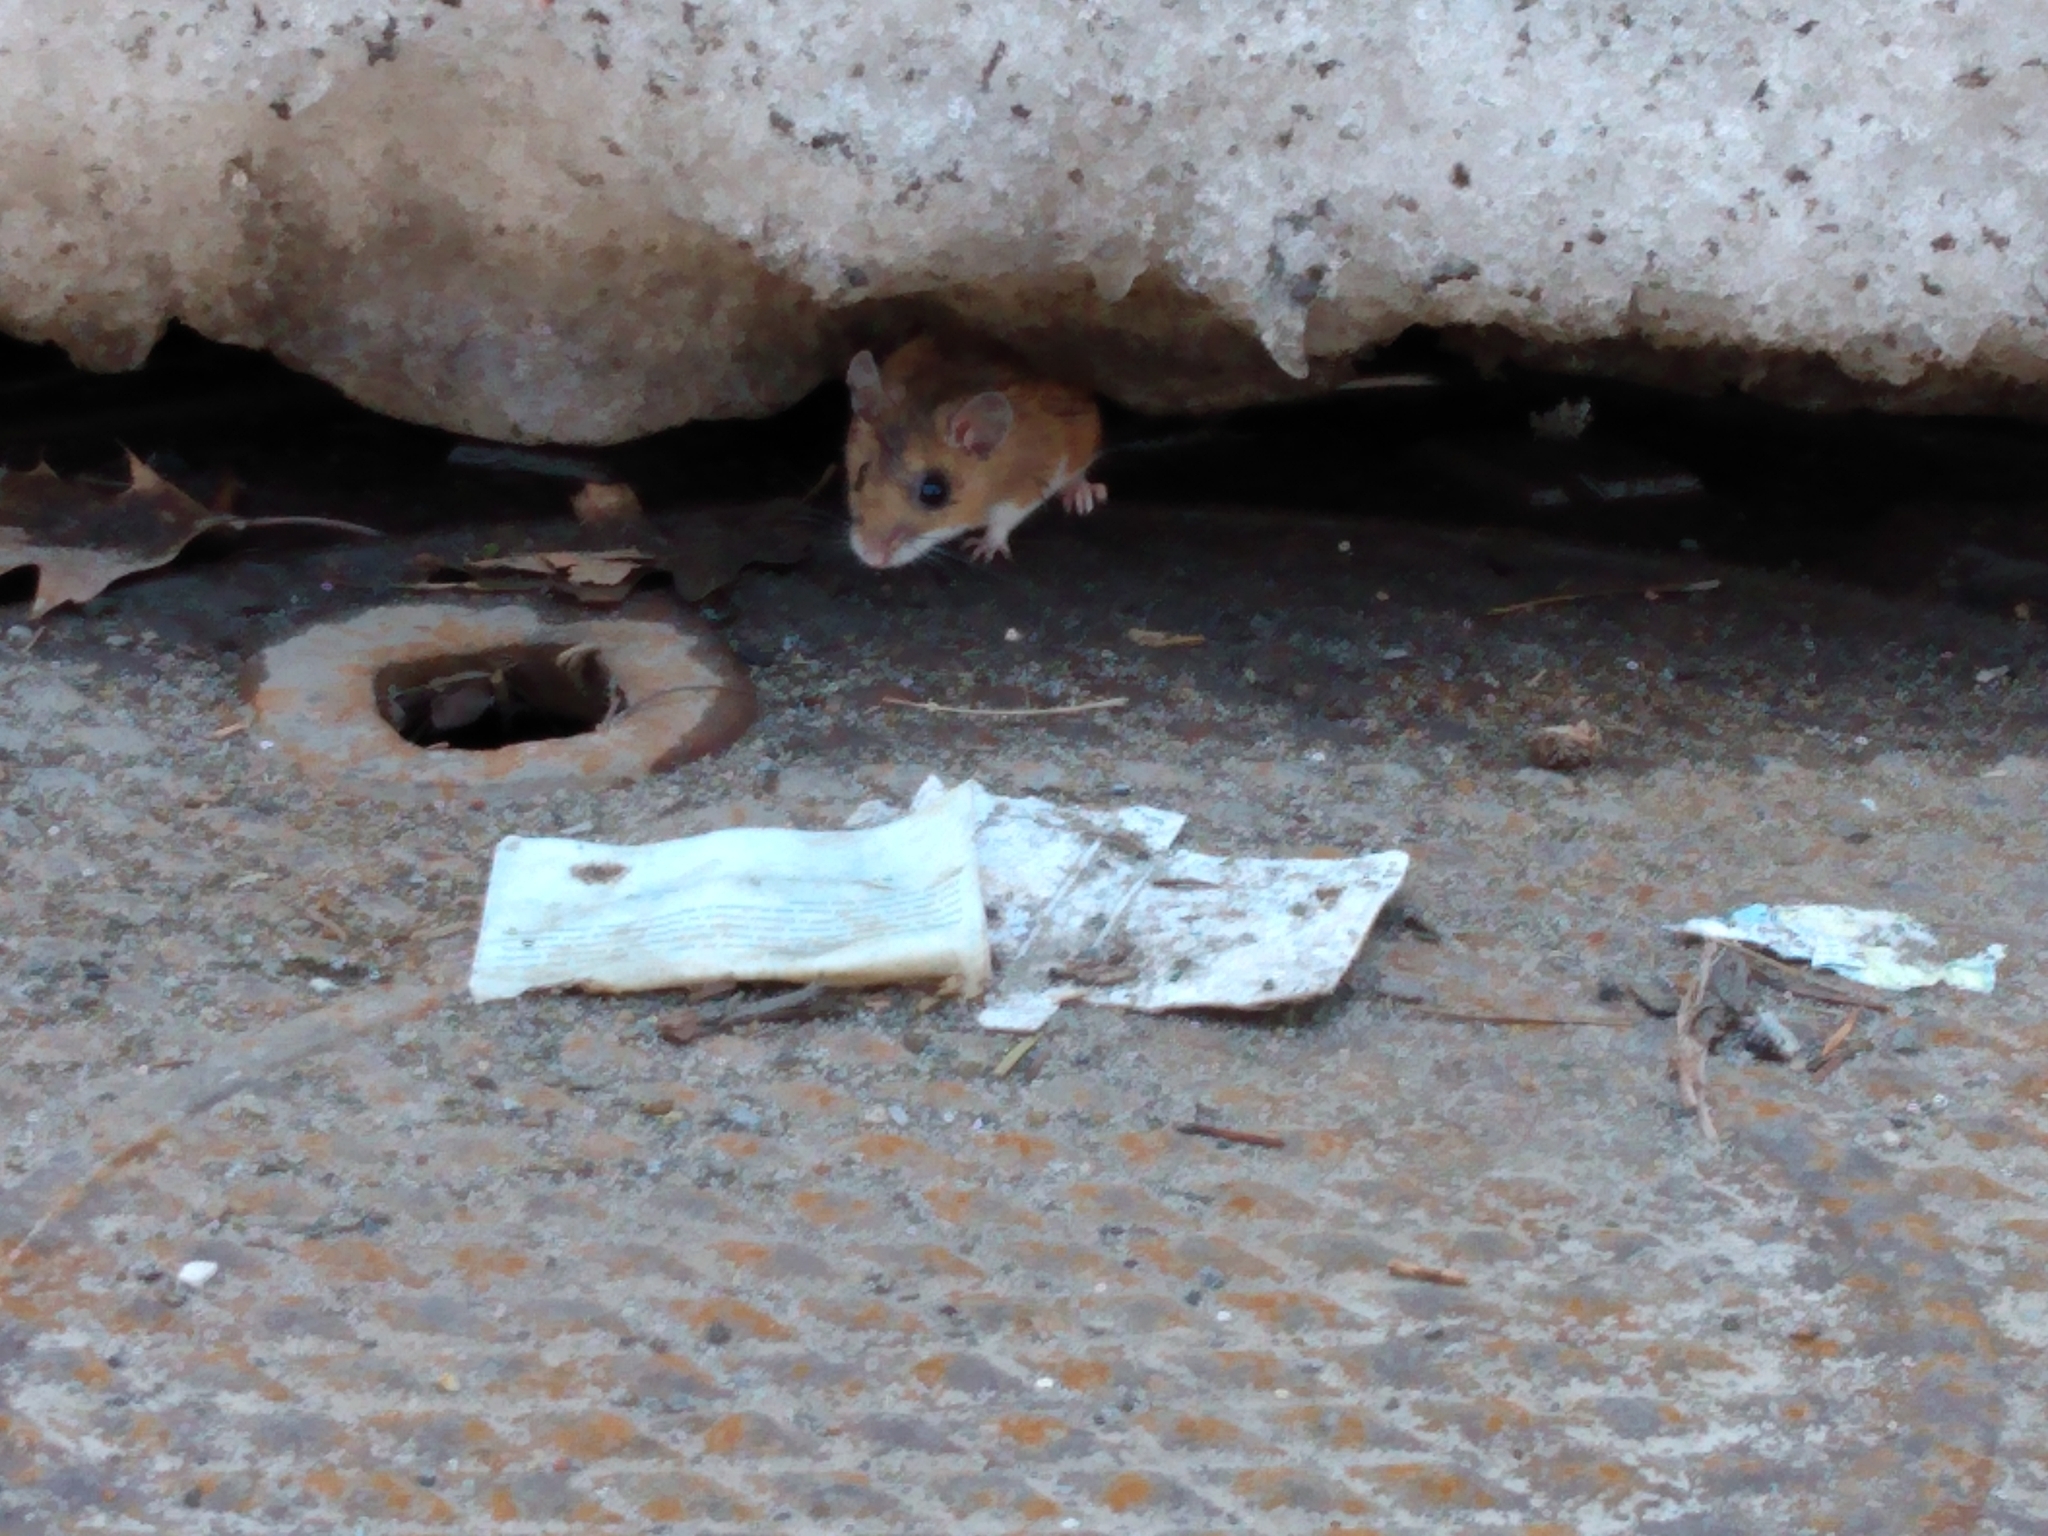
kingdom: Animalia
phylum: Chordata
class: Mammalia
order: Rodentia
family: Cricetidae
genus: Peromyscus
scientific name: Peromyscus maniculatus
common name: Deer mouse
